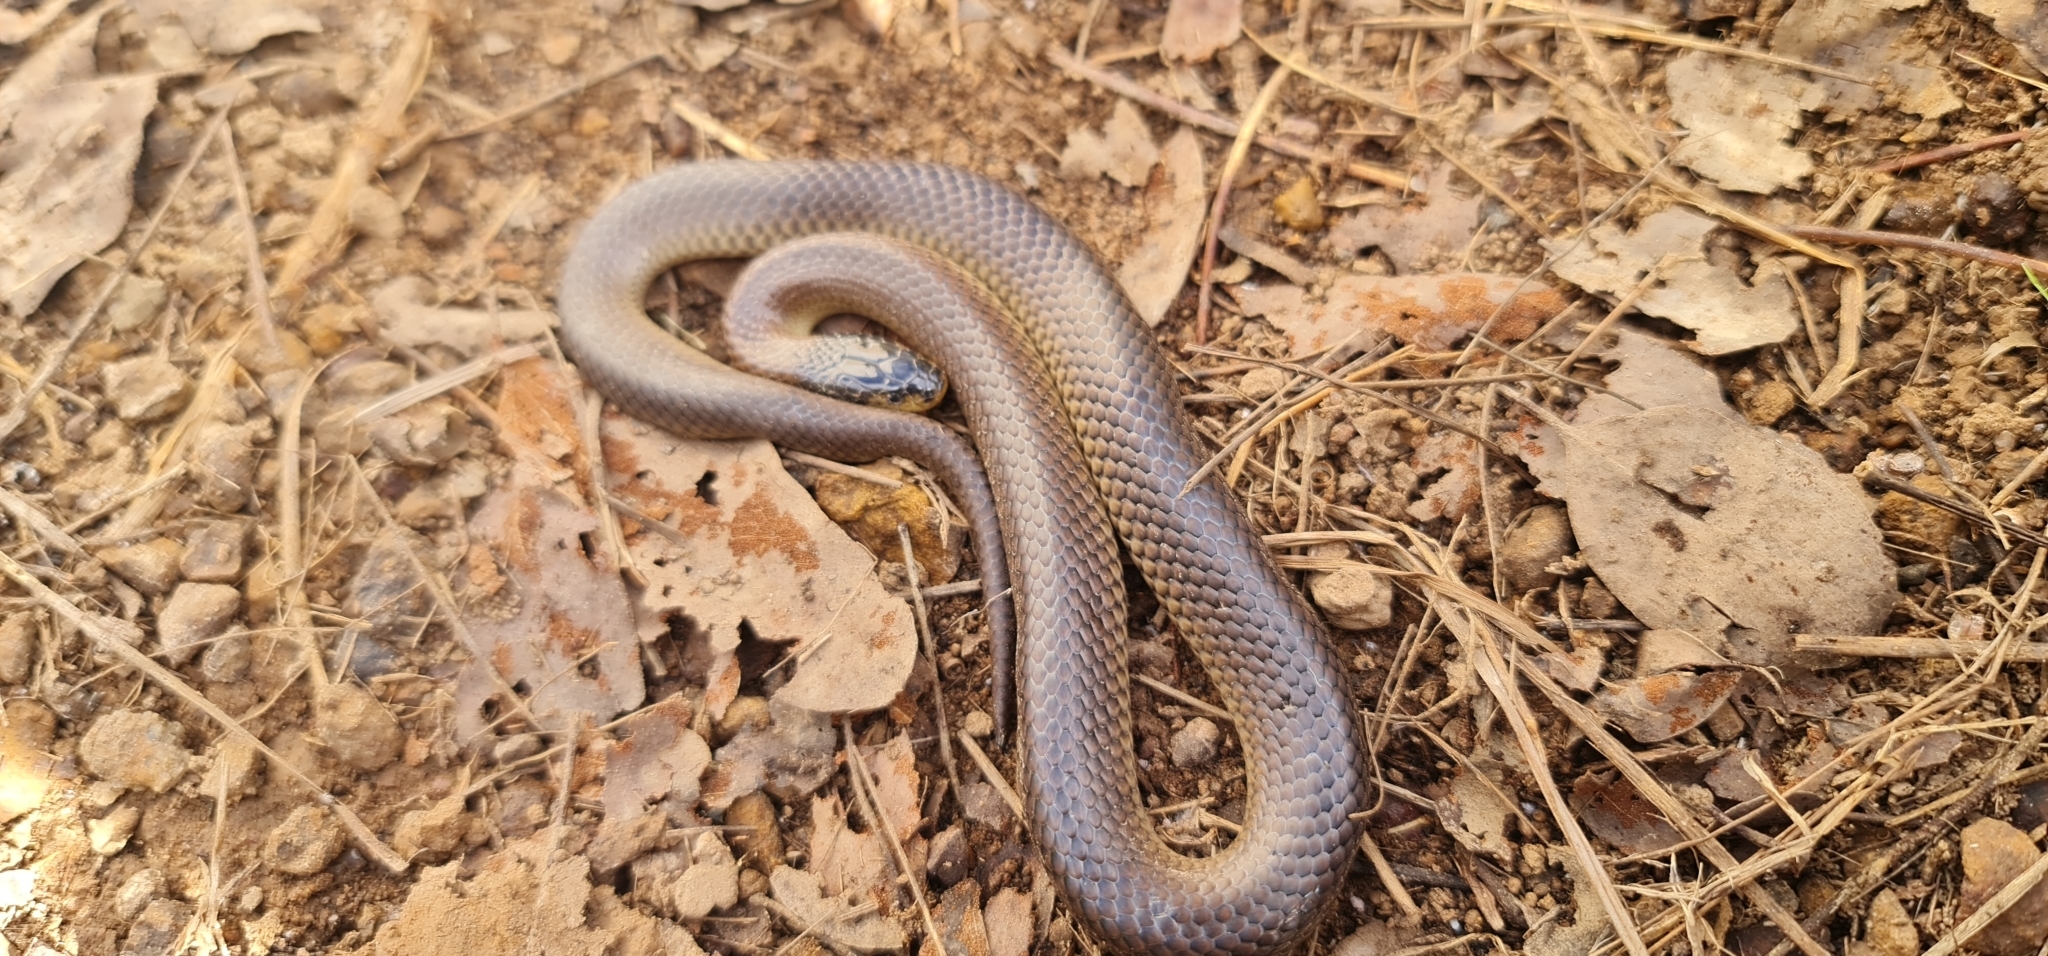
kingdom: Animalia
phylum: Chordata
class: Squamata
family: Elapidae
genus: Suta
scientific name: Suta dwyeri
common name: Variable black-naped snake
